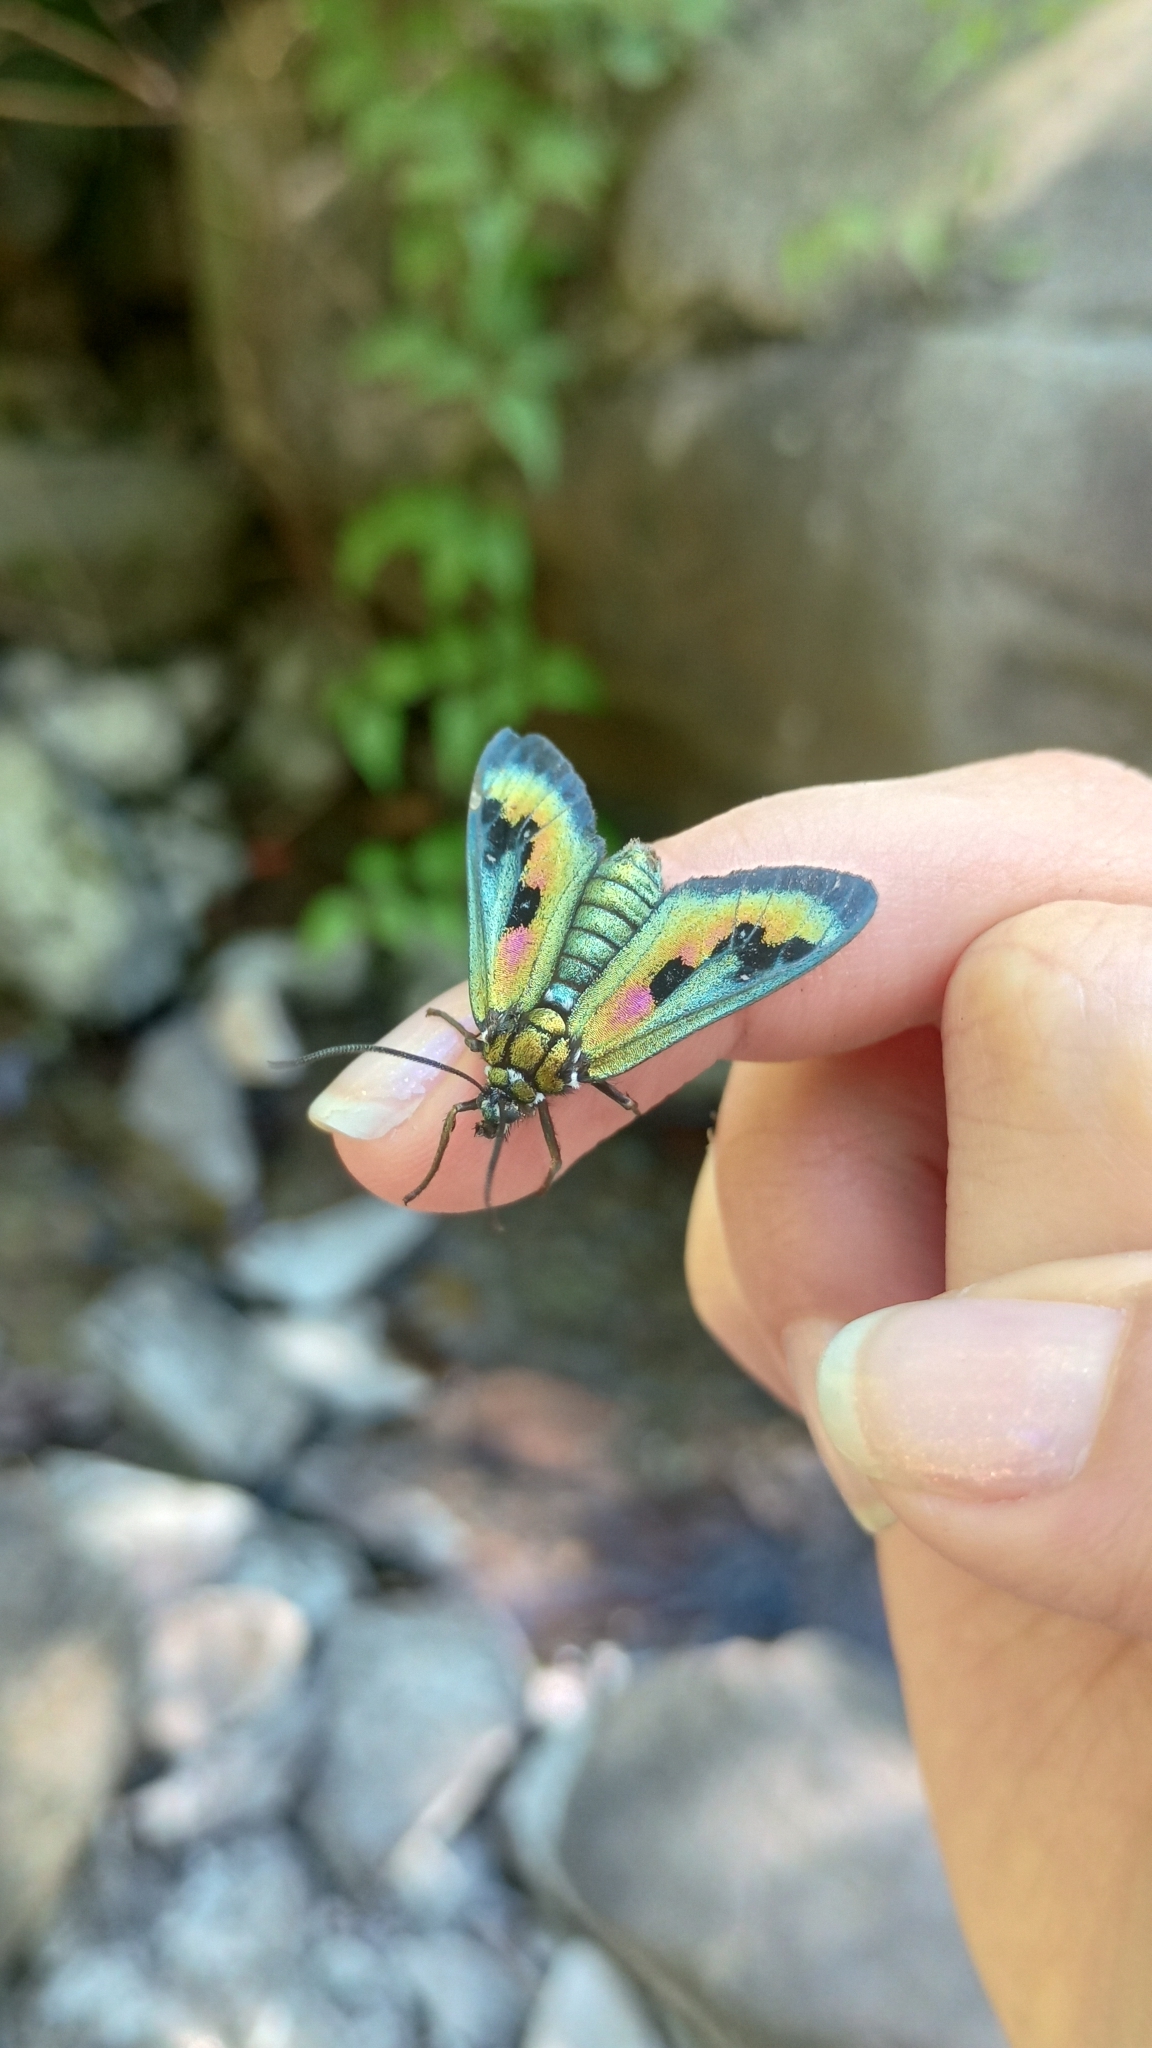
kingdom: Animalia
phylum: Arthropoda
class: Insecta
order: Lepidoptera
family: Erebidae
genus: Chrysocale
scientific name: Chrysocale regalis
